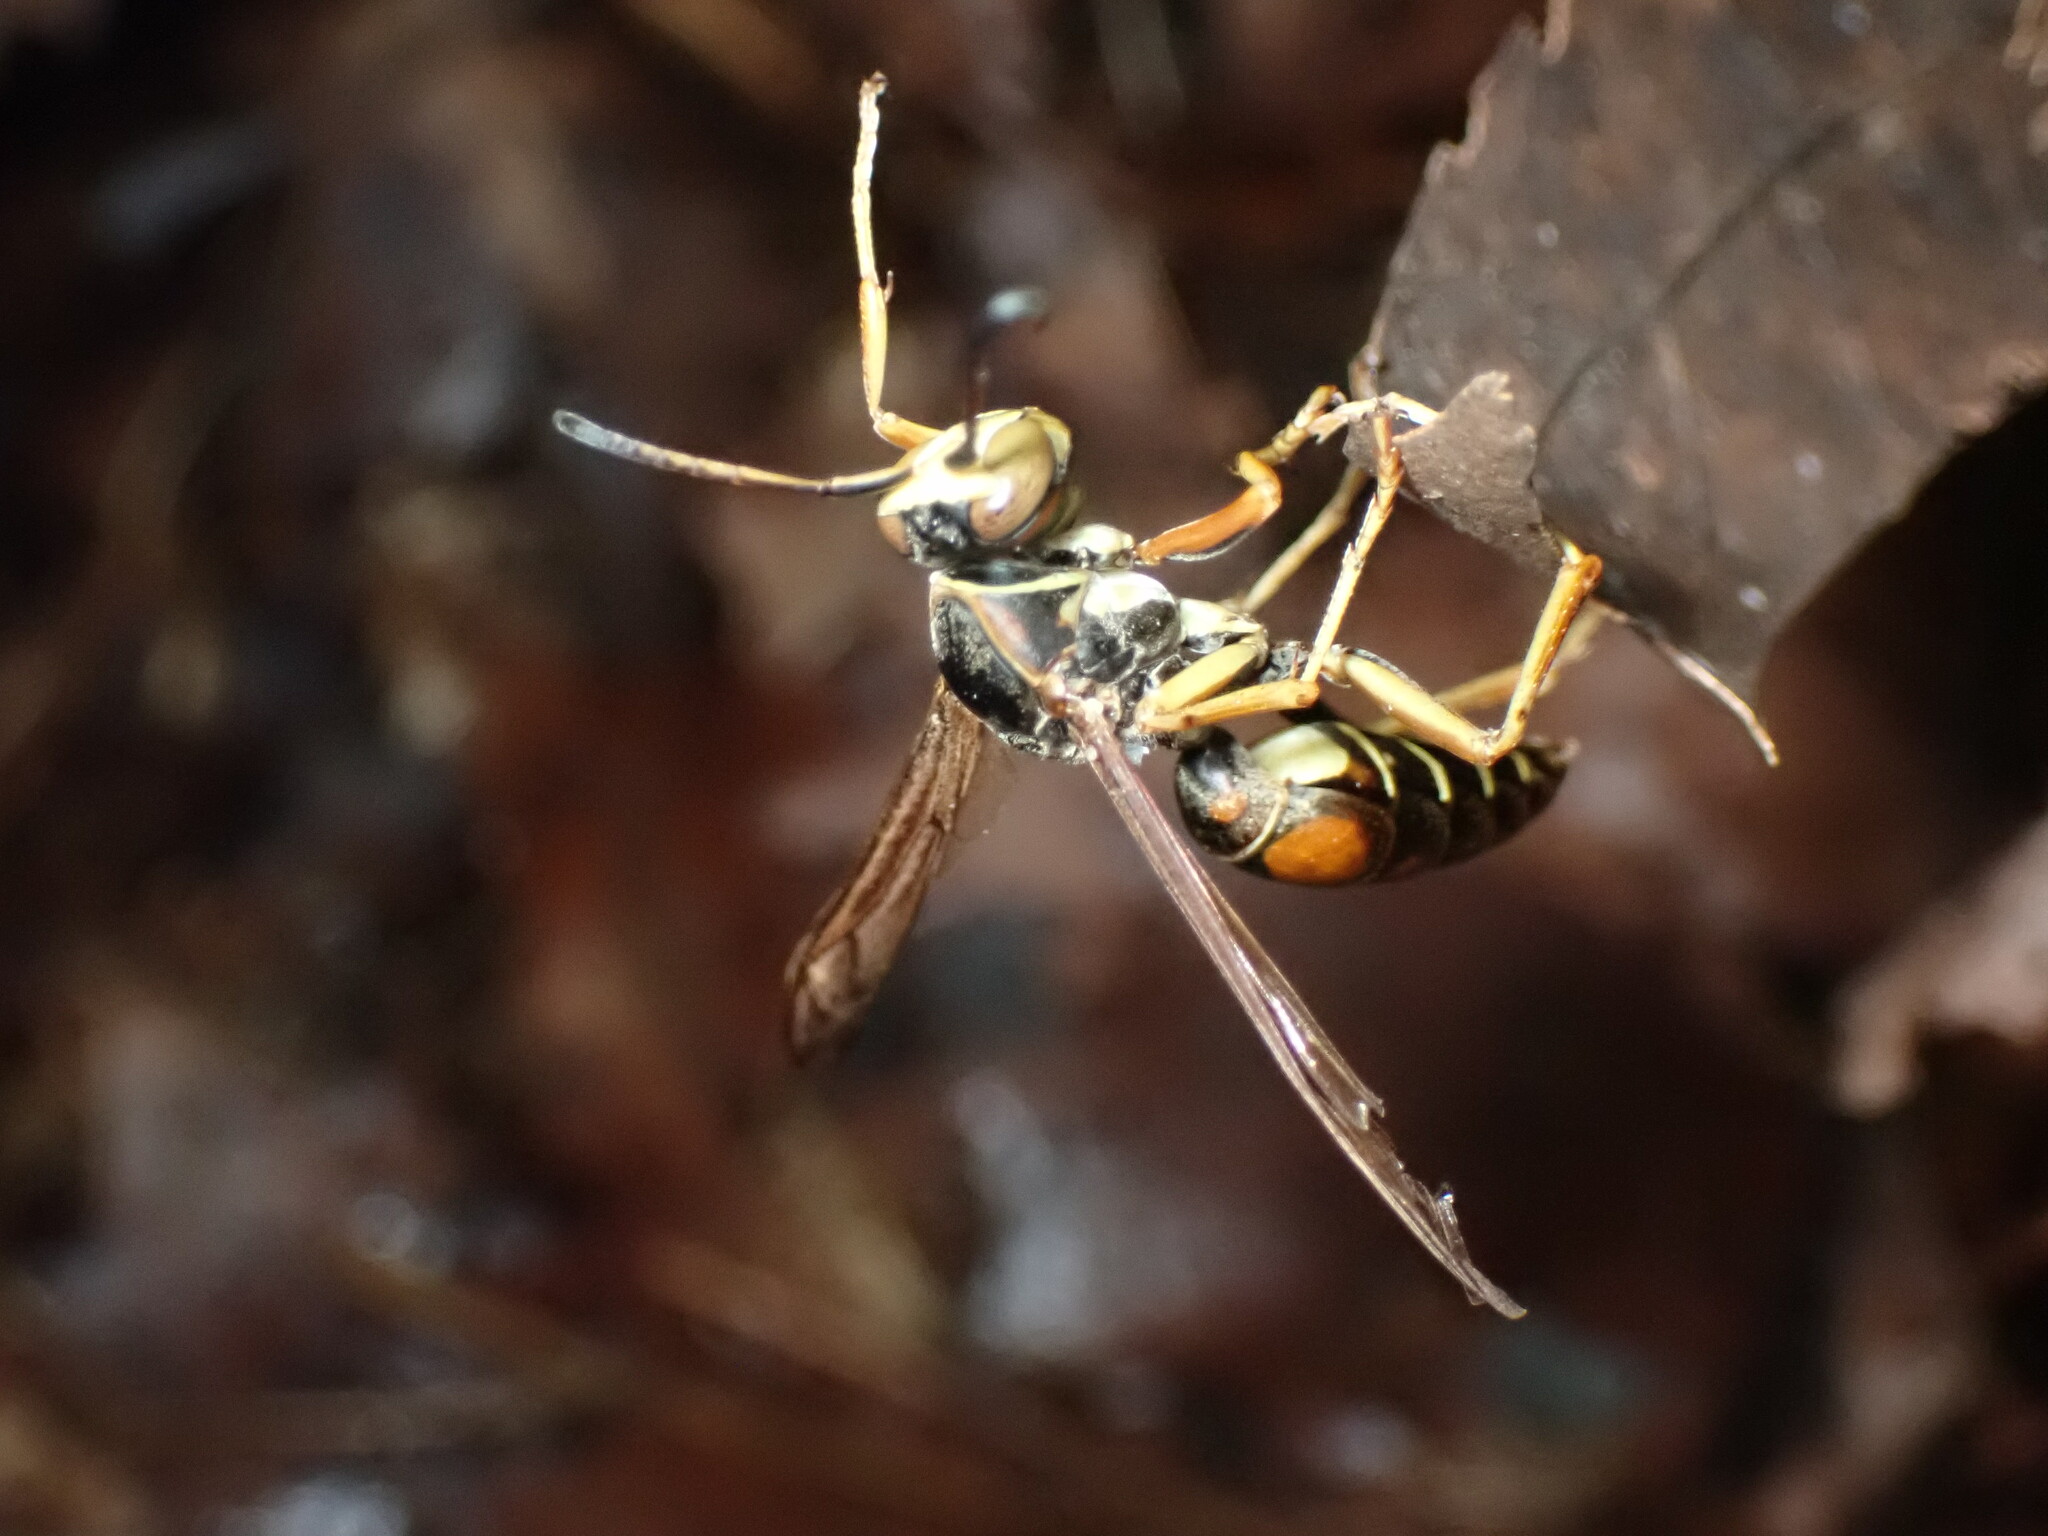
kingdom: Animalia
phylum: Arthropoda
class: Insecta
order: Hymenoptera
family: Eumenidae
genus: Polistes
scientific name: Polistes fuscatus
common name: Dark paper wasp
